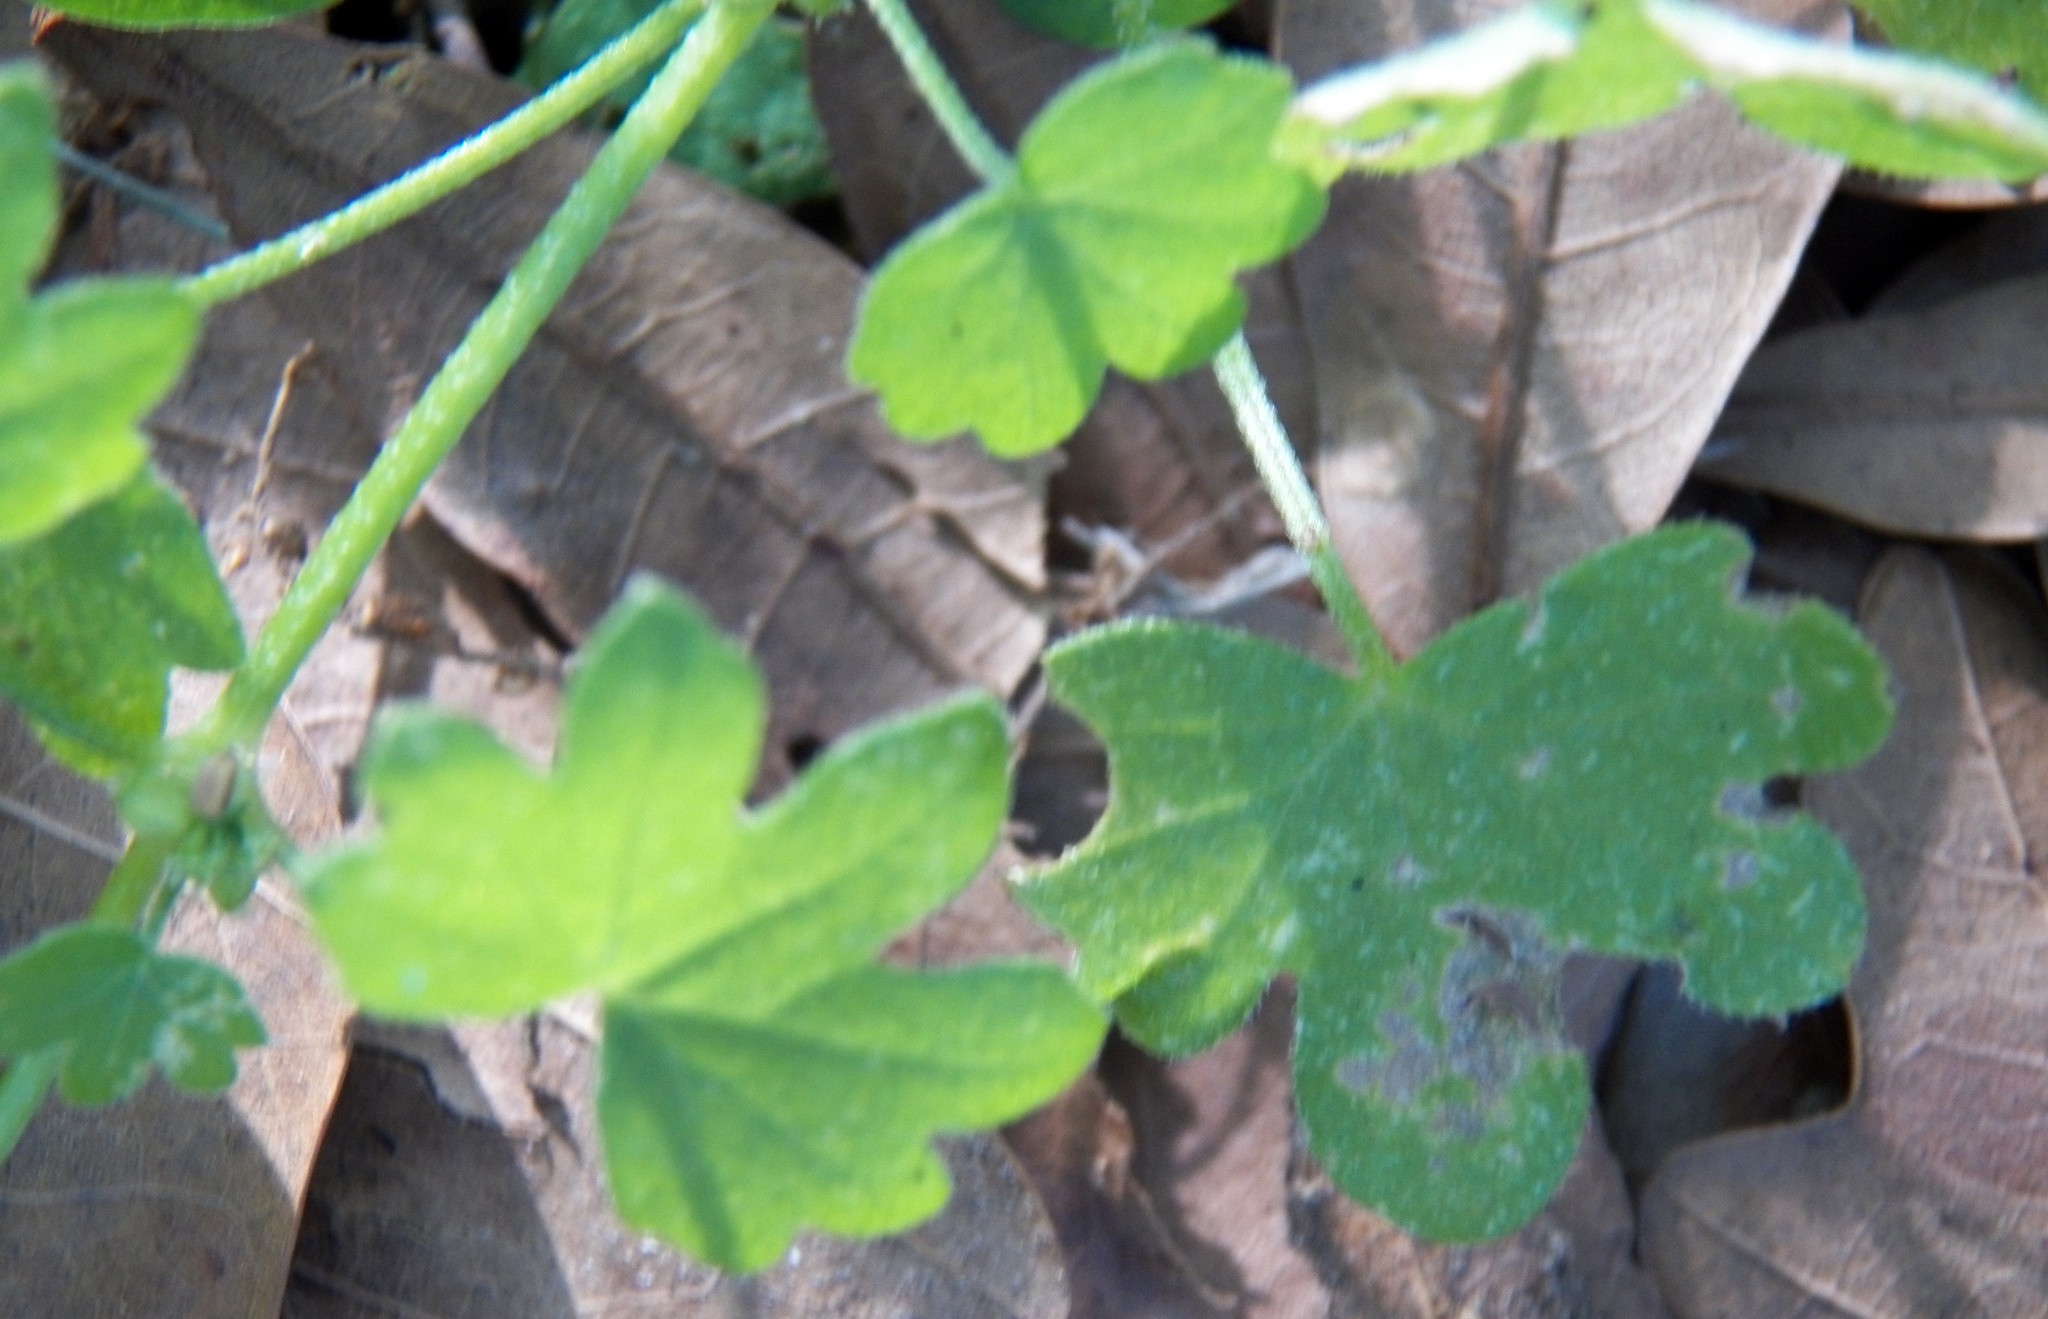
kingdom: Plantae
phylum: Tracheophyta
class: Magnoliopsida
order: Apiales
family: Apiaceae
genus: Bowlesia
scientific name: Bowlesia incana
